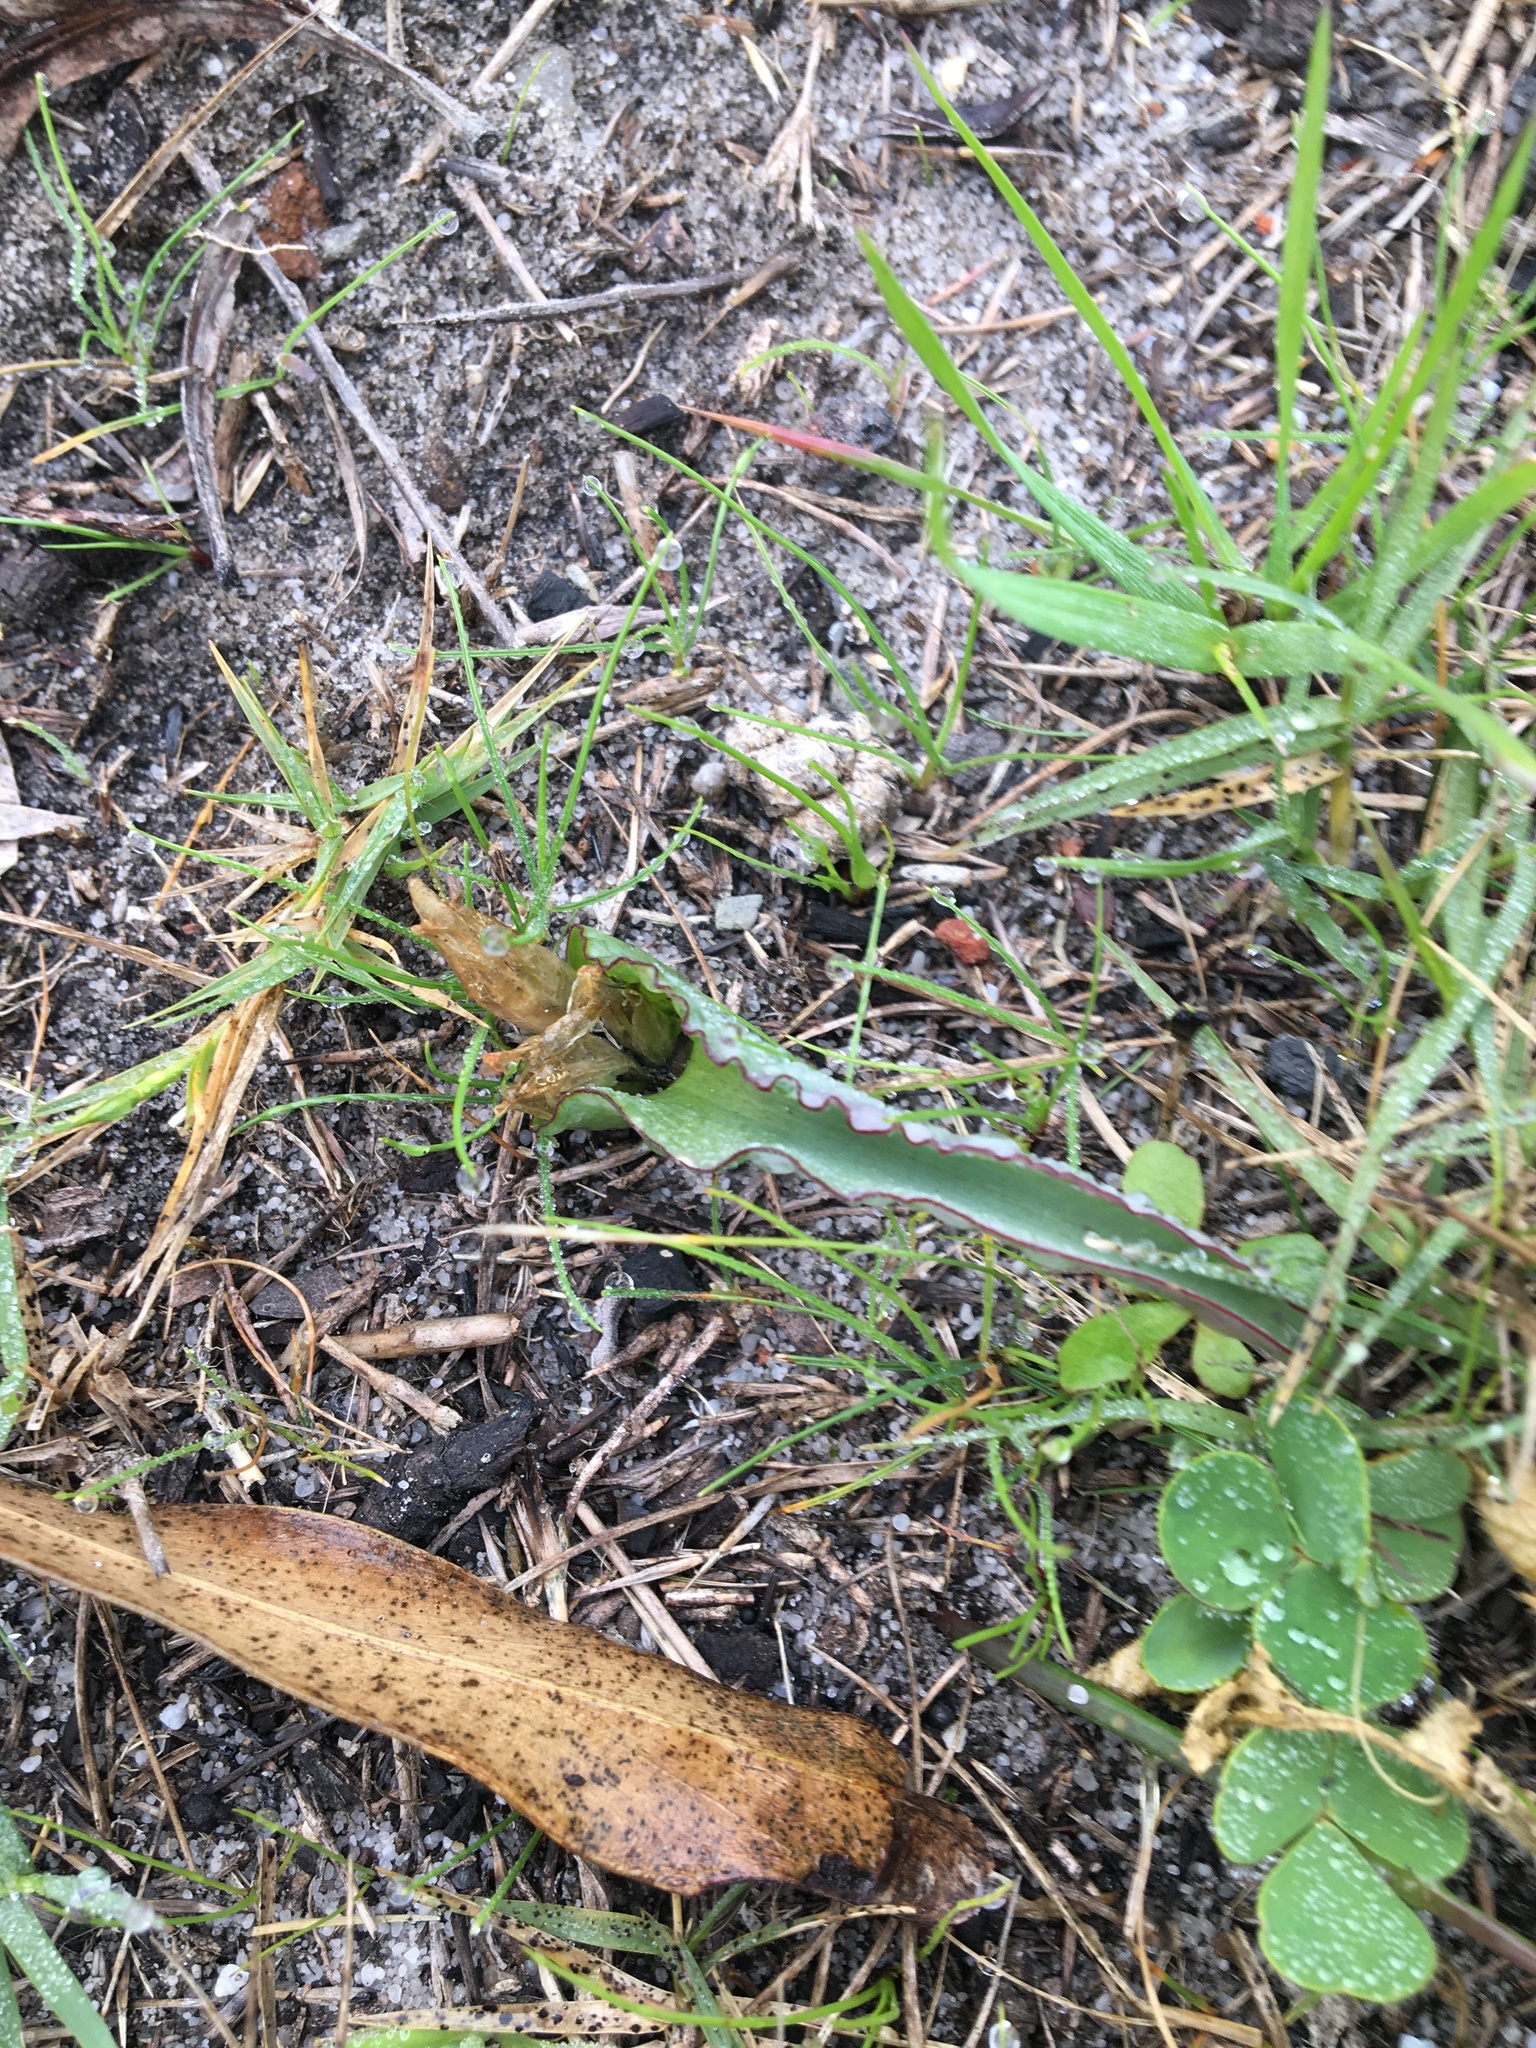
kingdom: Plantae
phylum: Tracheophyta
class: Liliopsida
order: Asparagales
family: Asparagaceae
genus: Lachenalia
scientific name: Lachenalia reflexa
